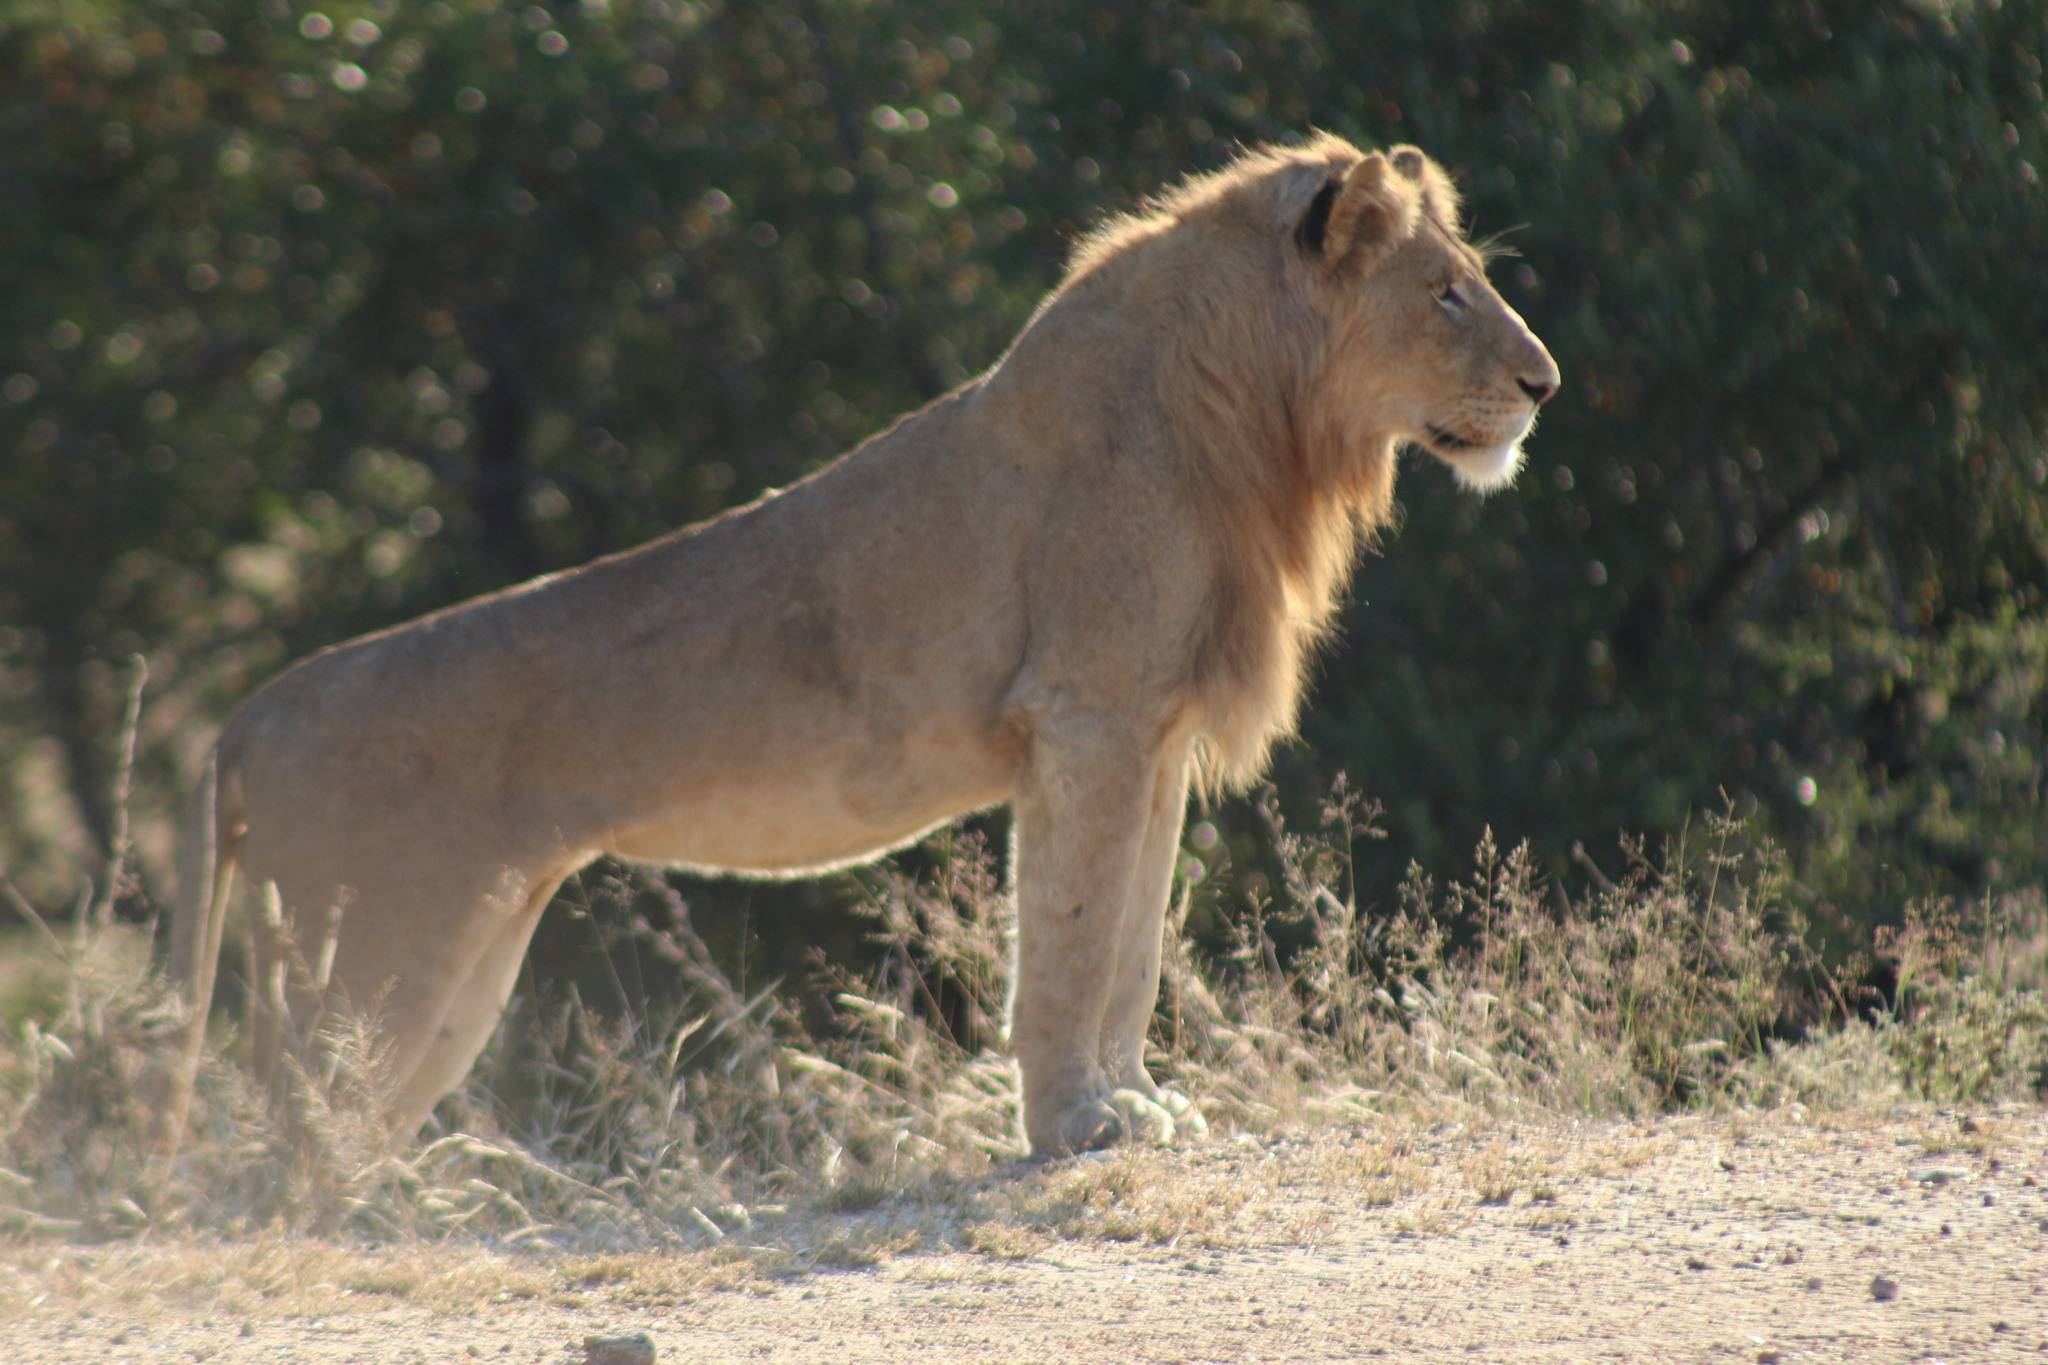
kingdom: Animalia
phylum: Chordata
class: Mammalia
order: Carnivora
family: Felidae
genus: Panthera
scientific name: Panthera leo
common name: Lion
